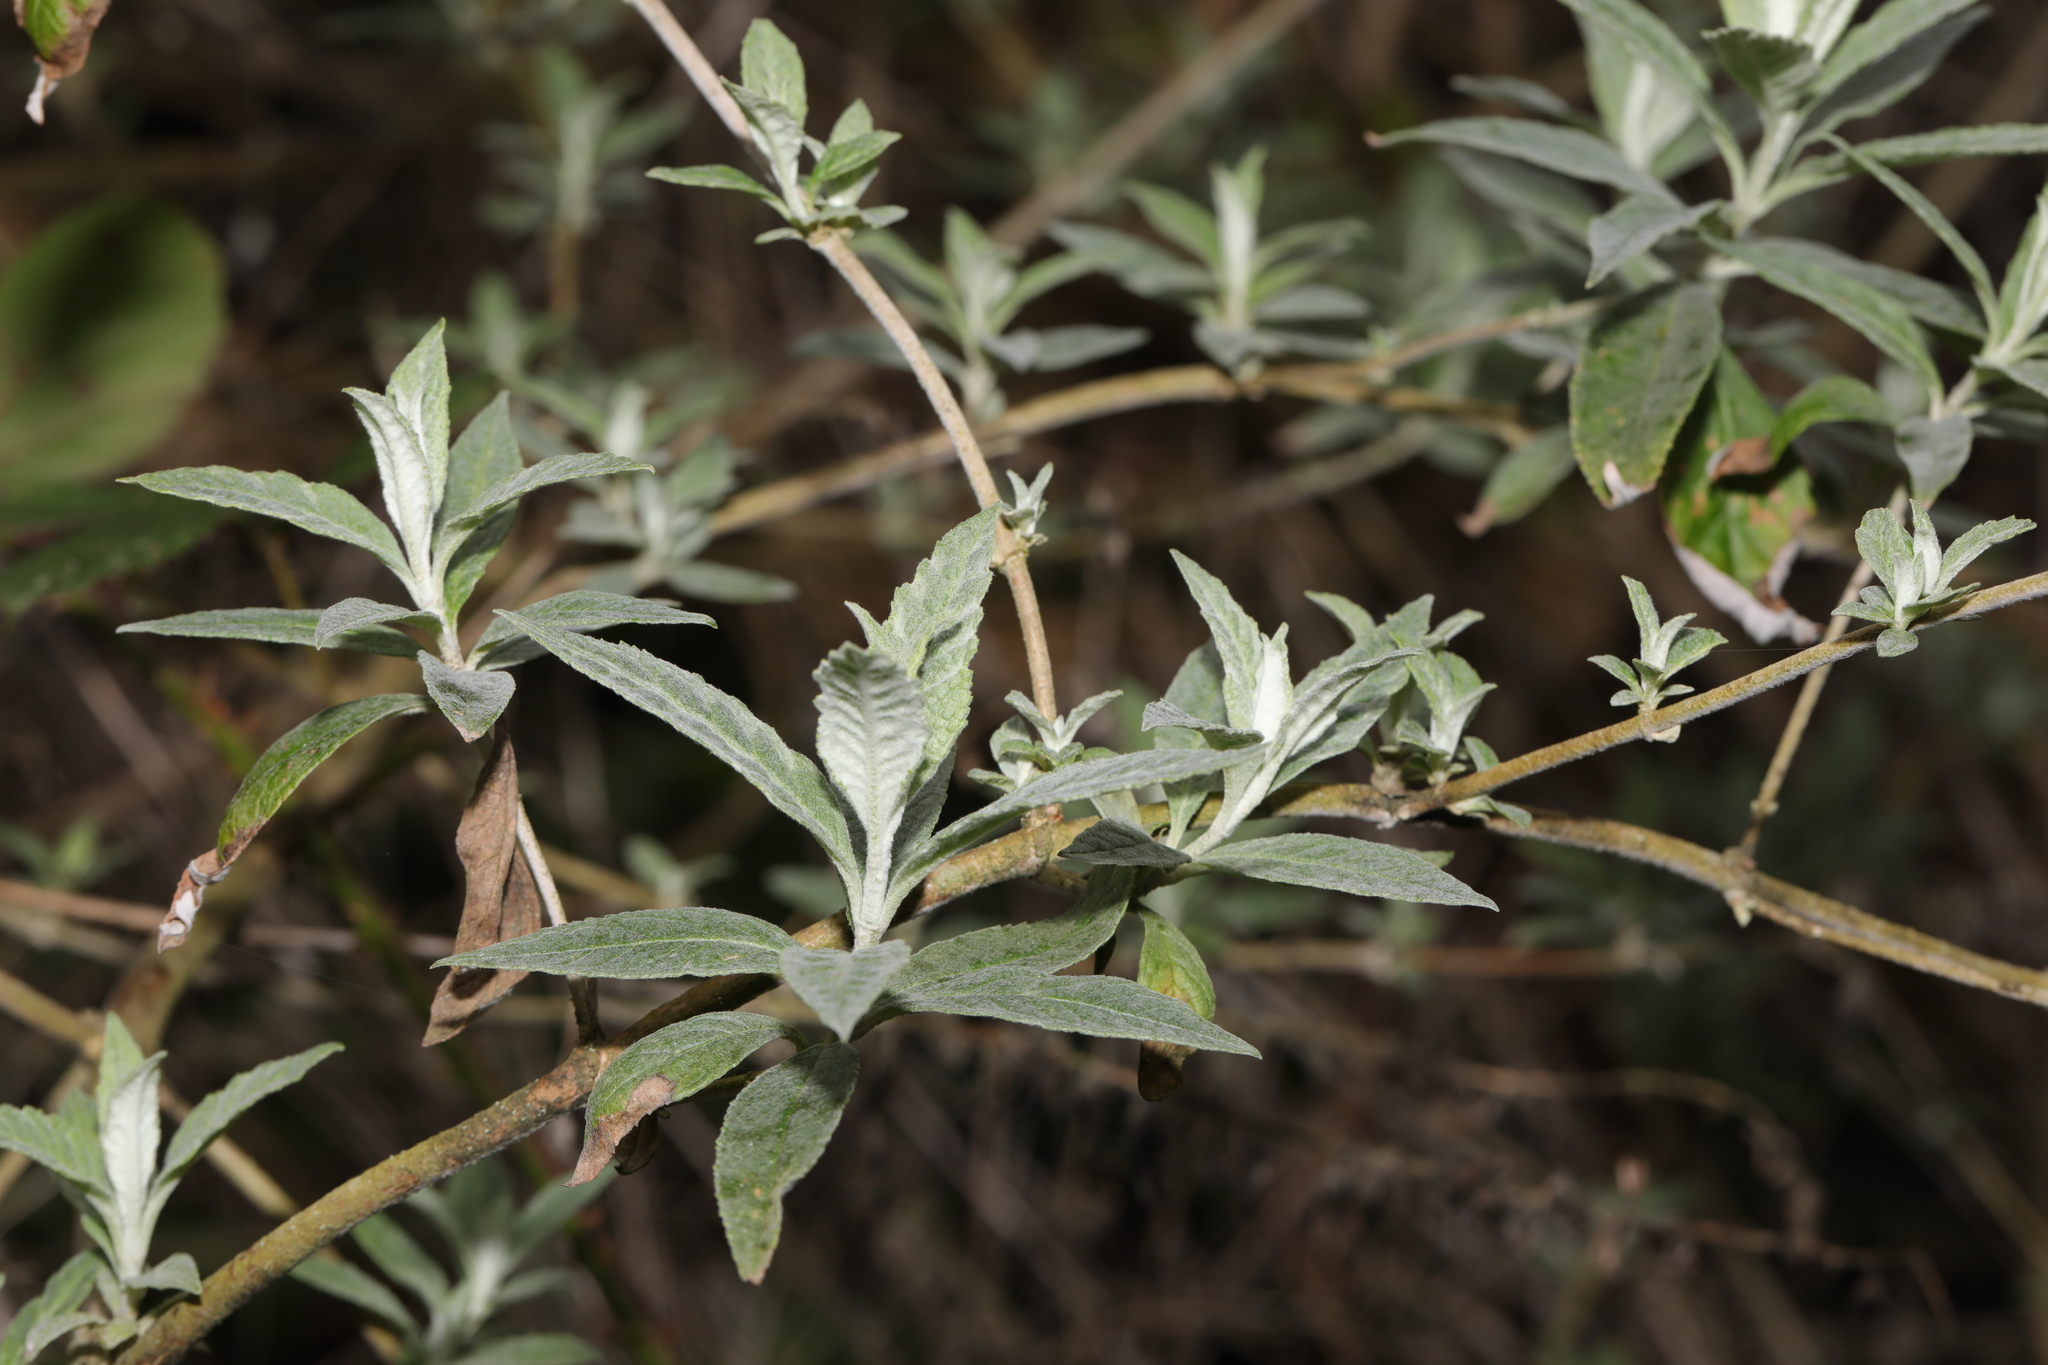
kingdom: Plantae
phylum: Tracheophyta
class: Magnoliopsida
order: Lamiales
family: Scrophulariaceae
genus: Buddleja
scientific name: Buddleja davidii
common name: Butterfly-bush
